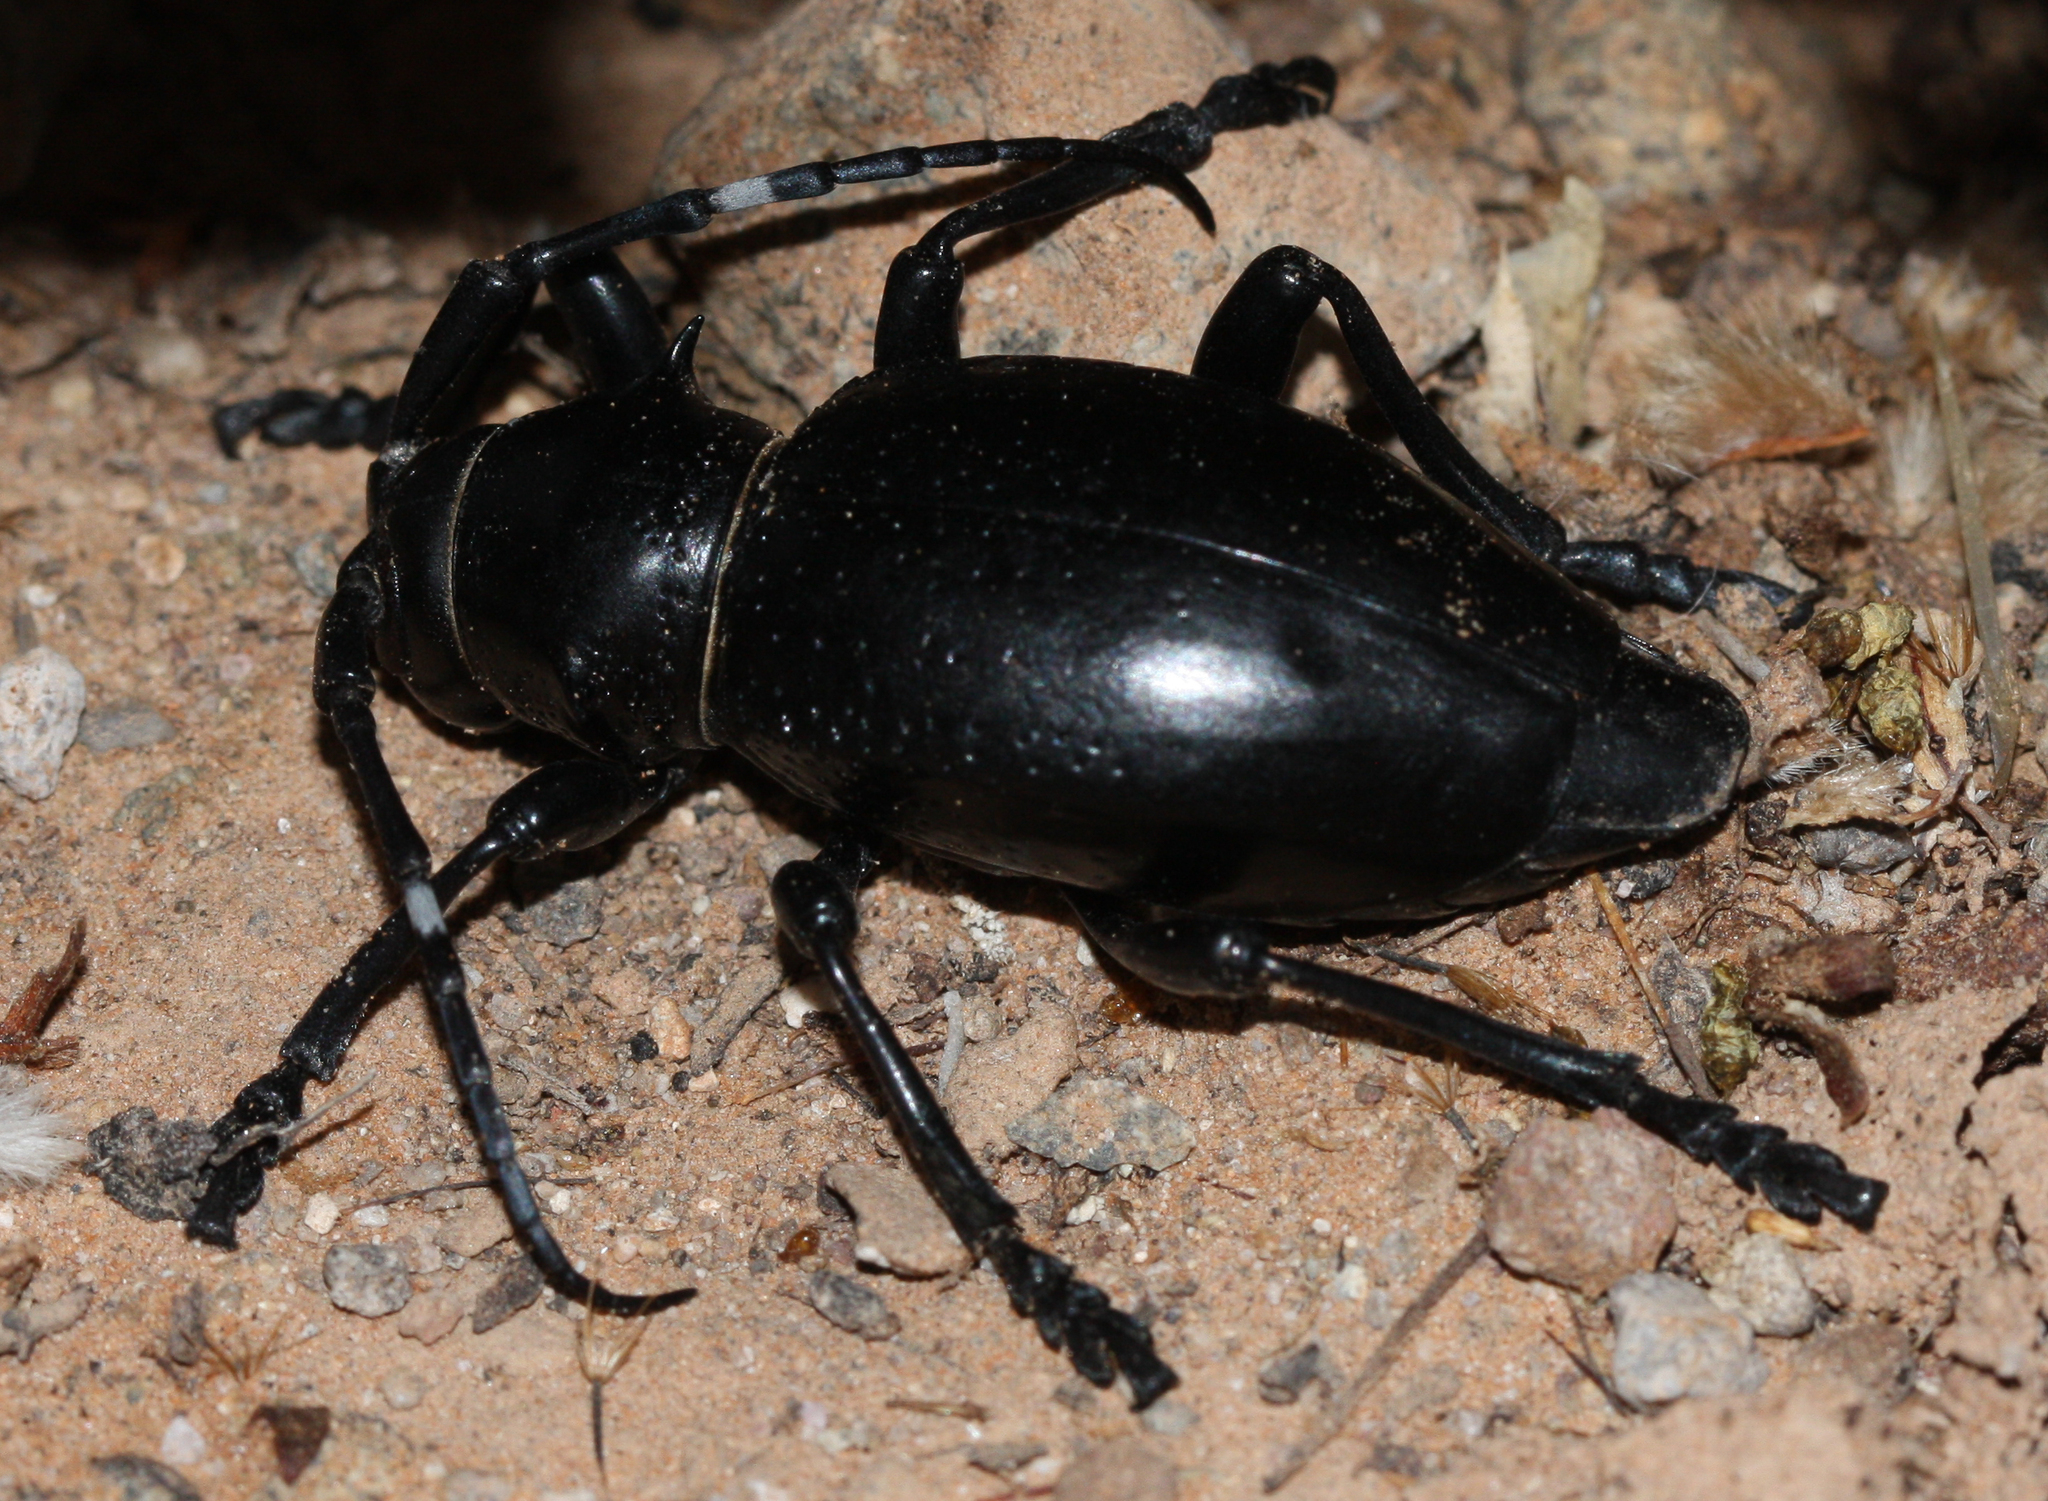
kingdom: Animalia
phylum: Arthropoda
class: Insecta
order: Coleoptera
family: Cerambycidae
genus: Moneilema
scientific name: Moneilema gigas
